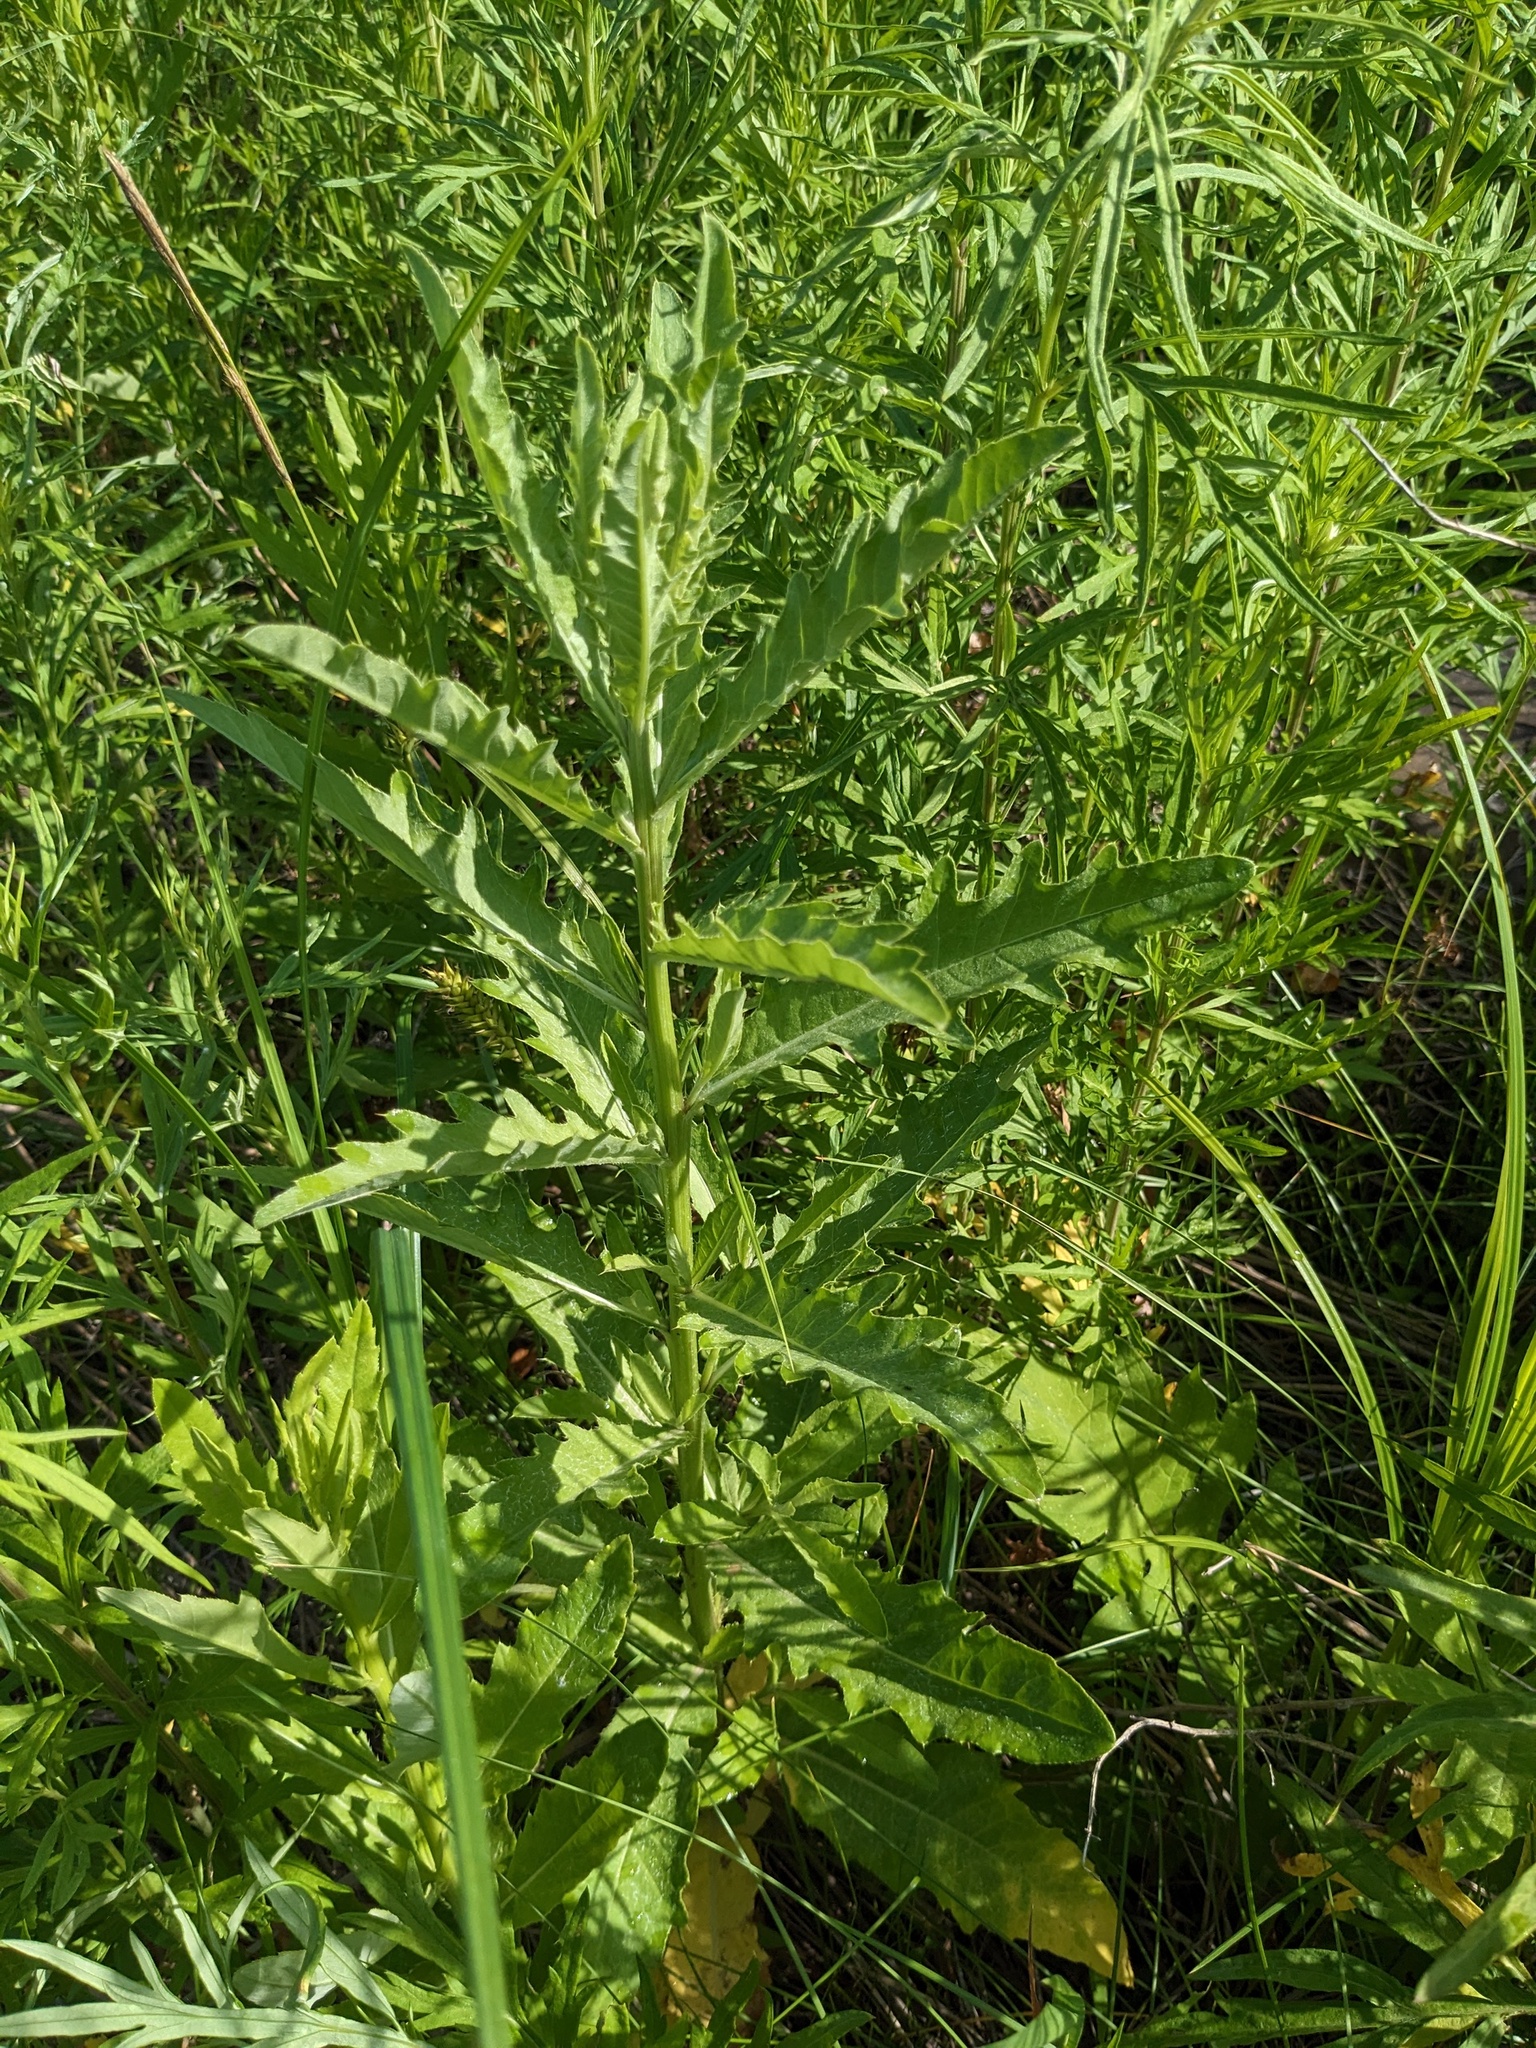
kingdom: Plantae
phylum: Tracheophyta
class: Magnoliopsida
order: Asterales
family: Asteraceae
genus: Cirsium
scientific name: Cirsium arvense
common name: Creeping thistle
